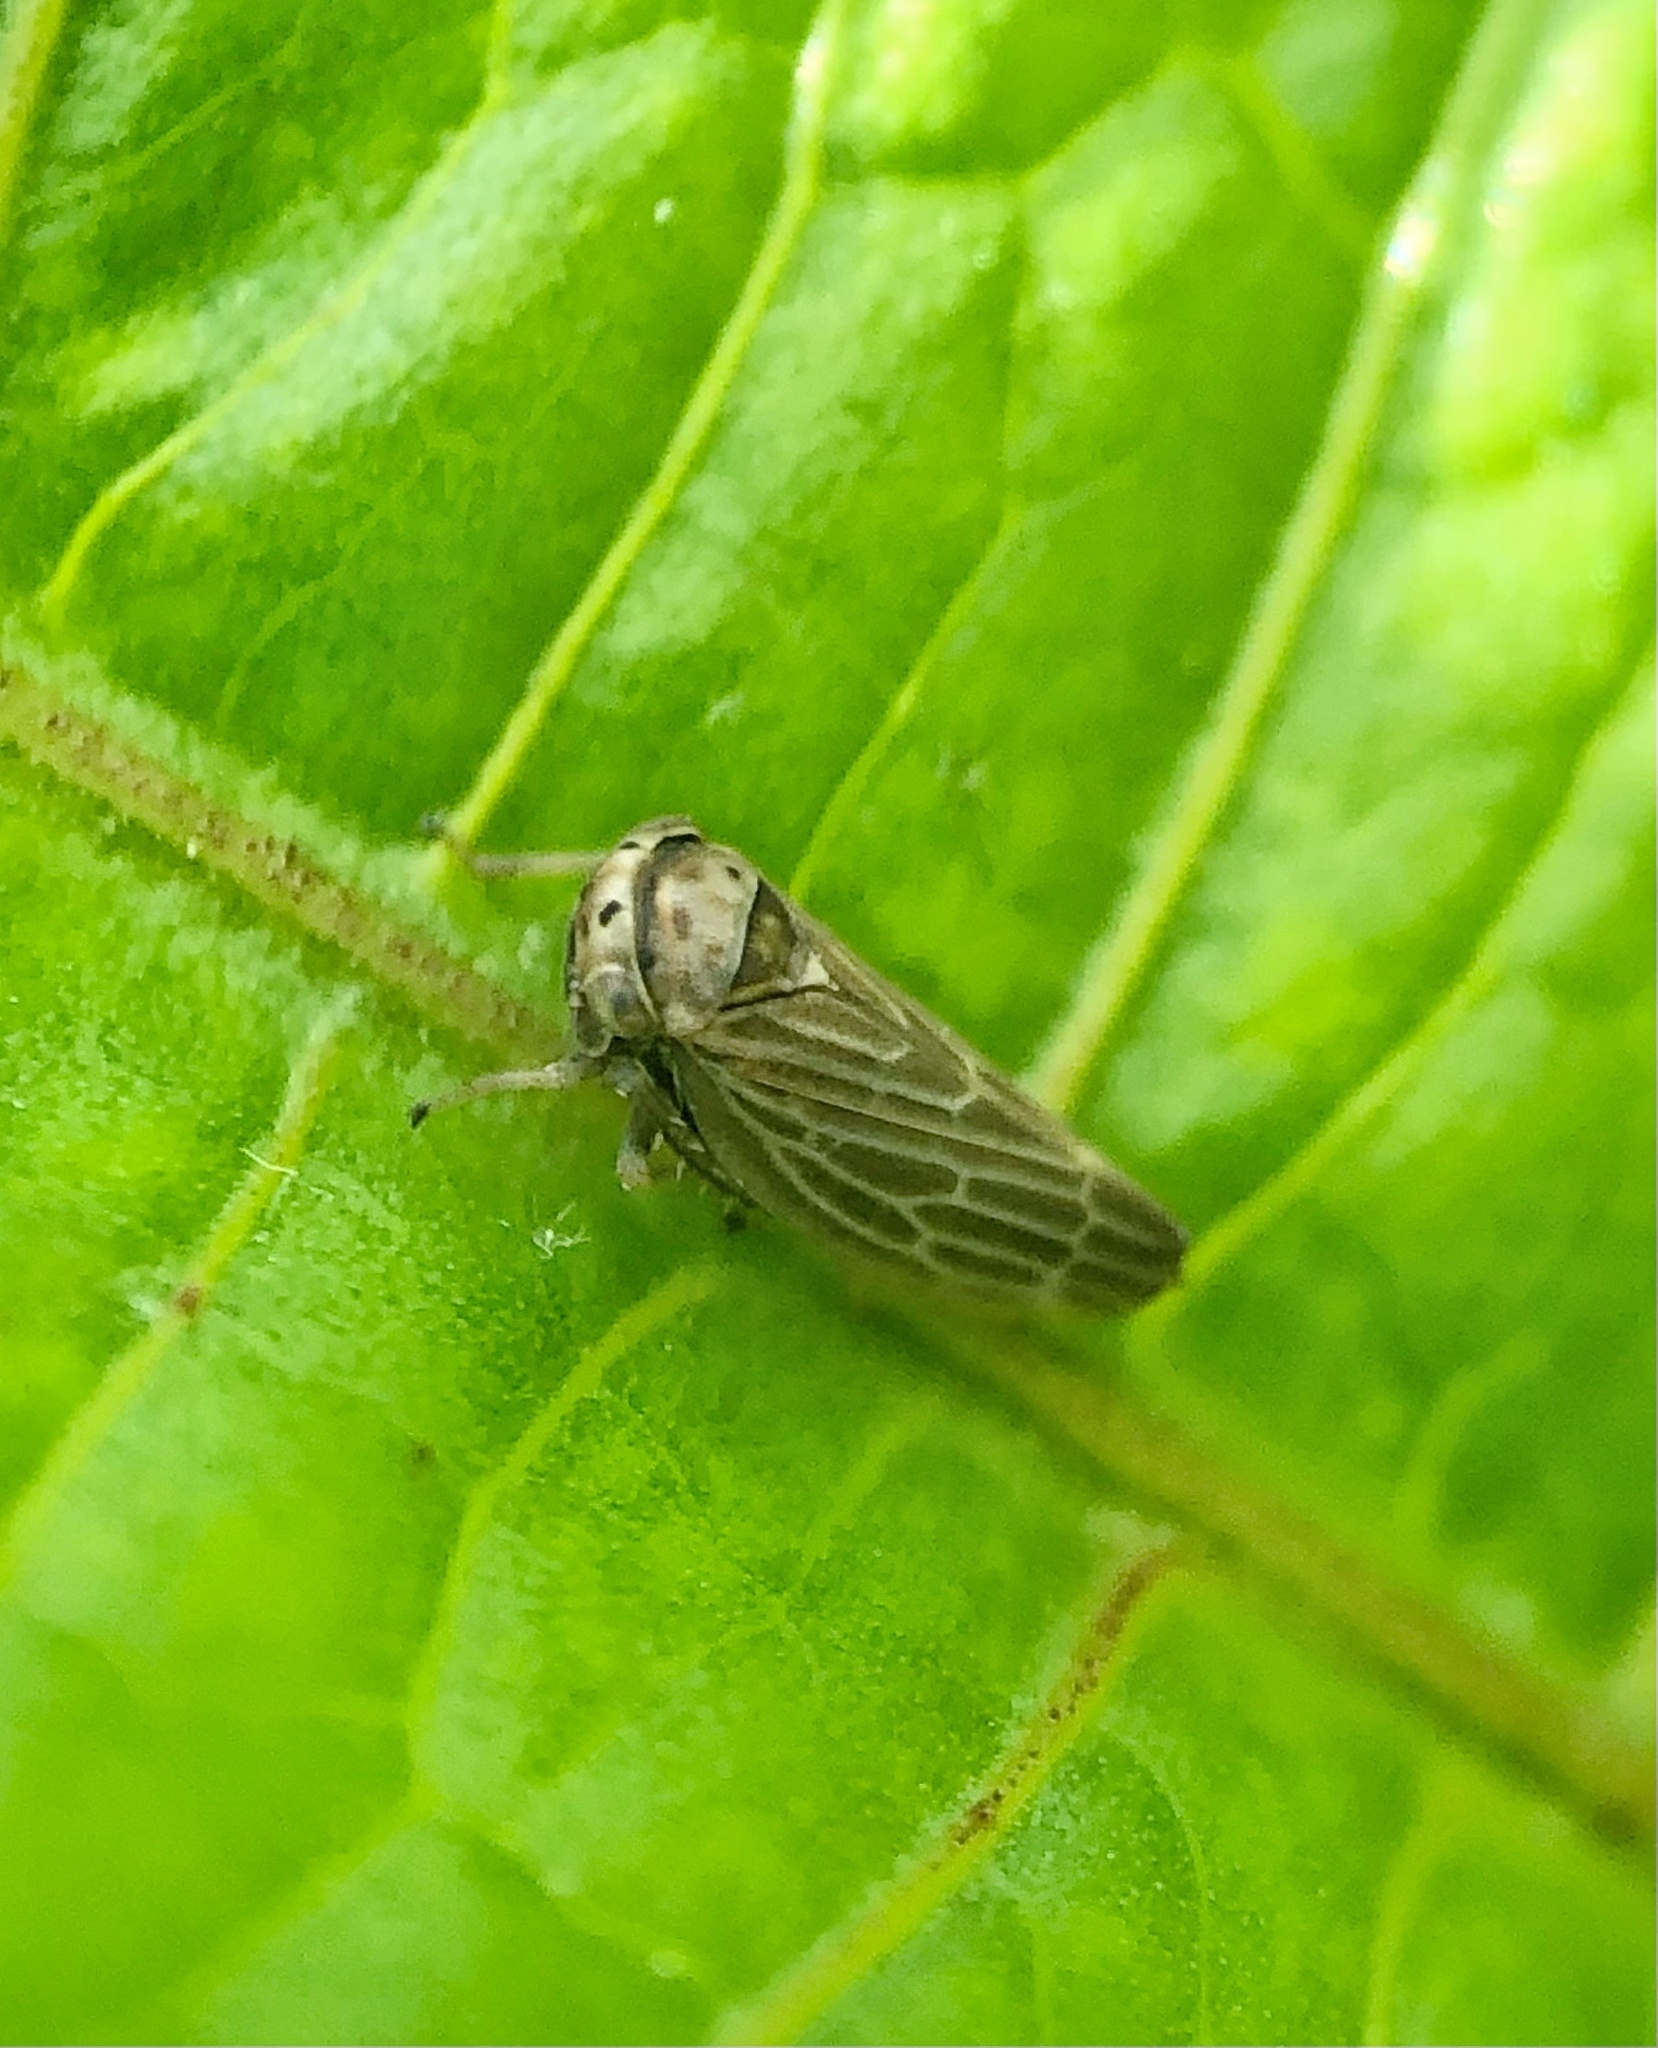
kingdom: Animalia
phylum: Arthropoda
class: Insecta
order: Hemiptera
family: Cicadellidae
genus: Agalliota
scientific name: Agalliota quadripunctata
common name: The four-spotted clover leafhopper
